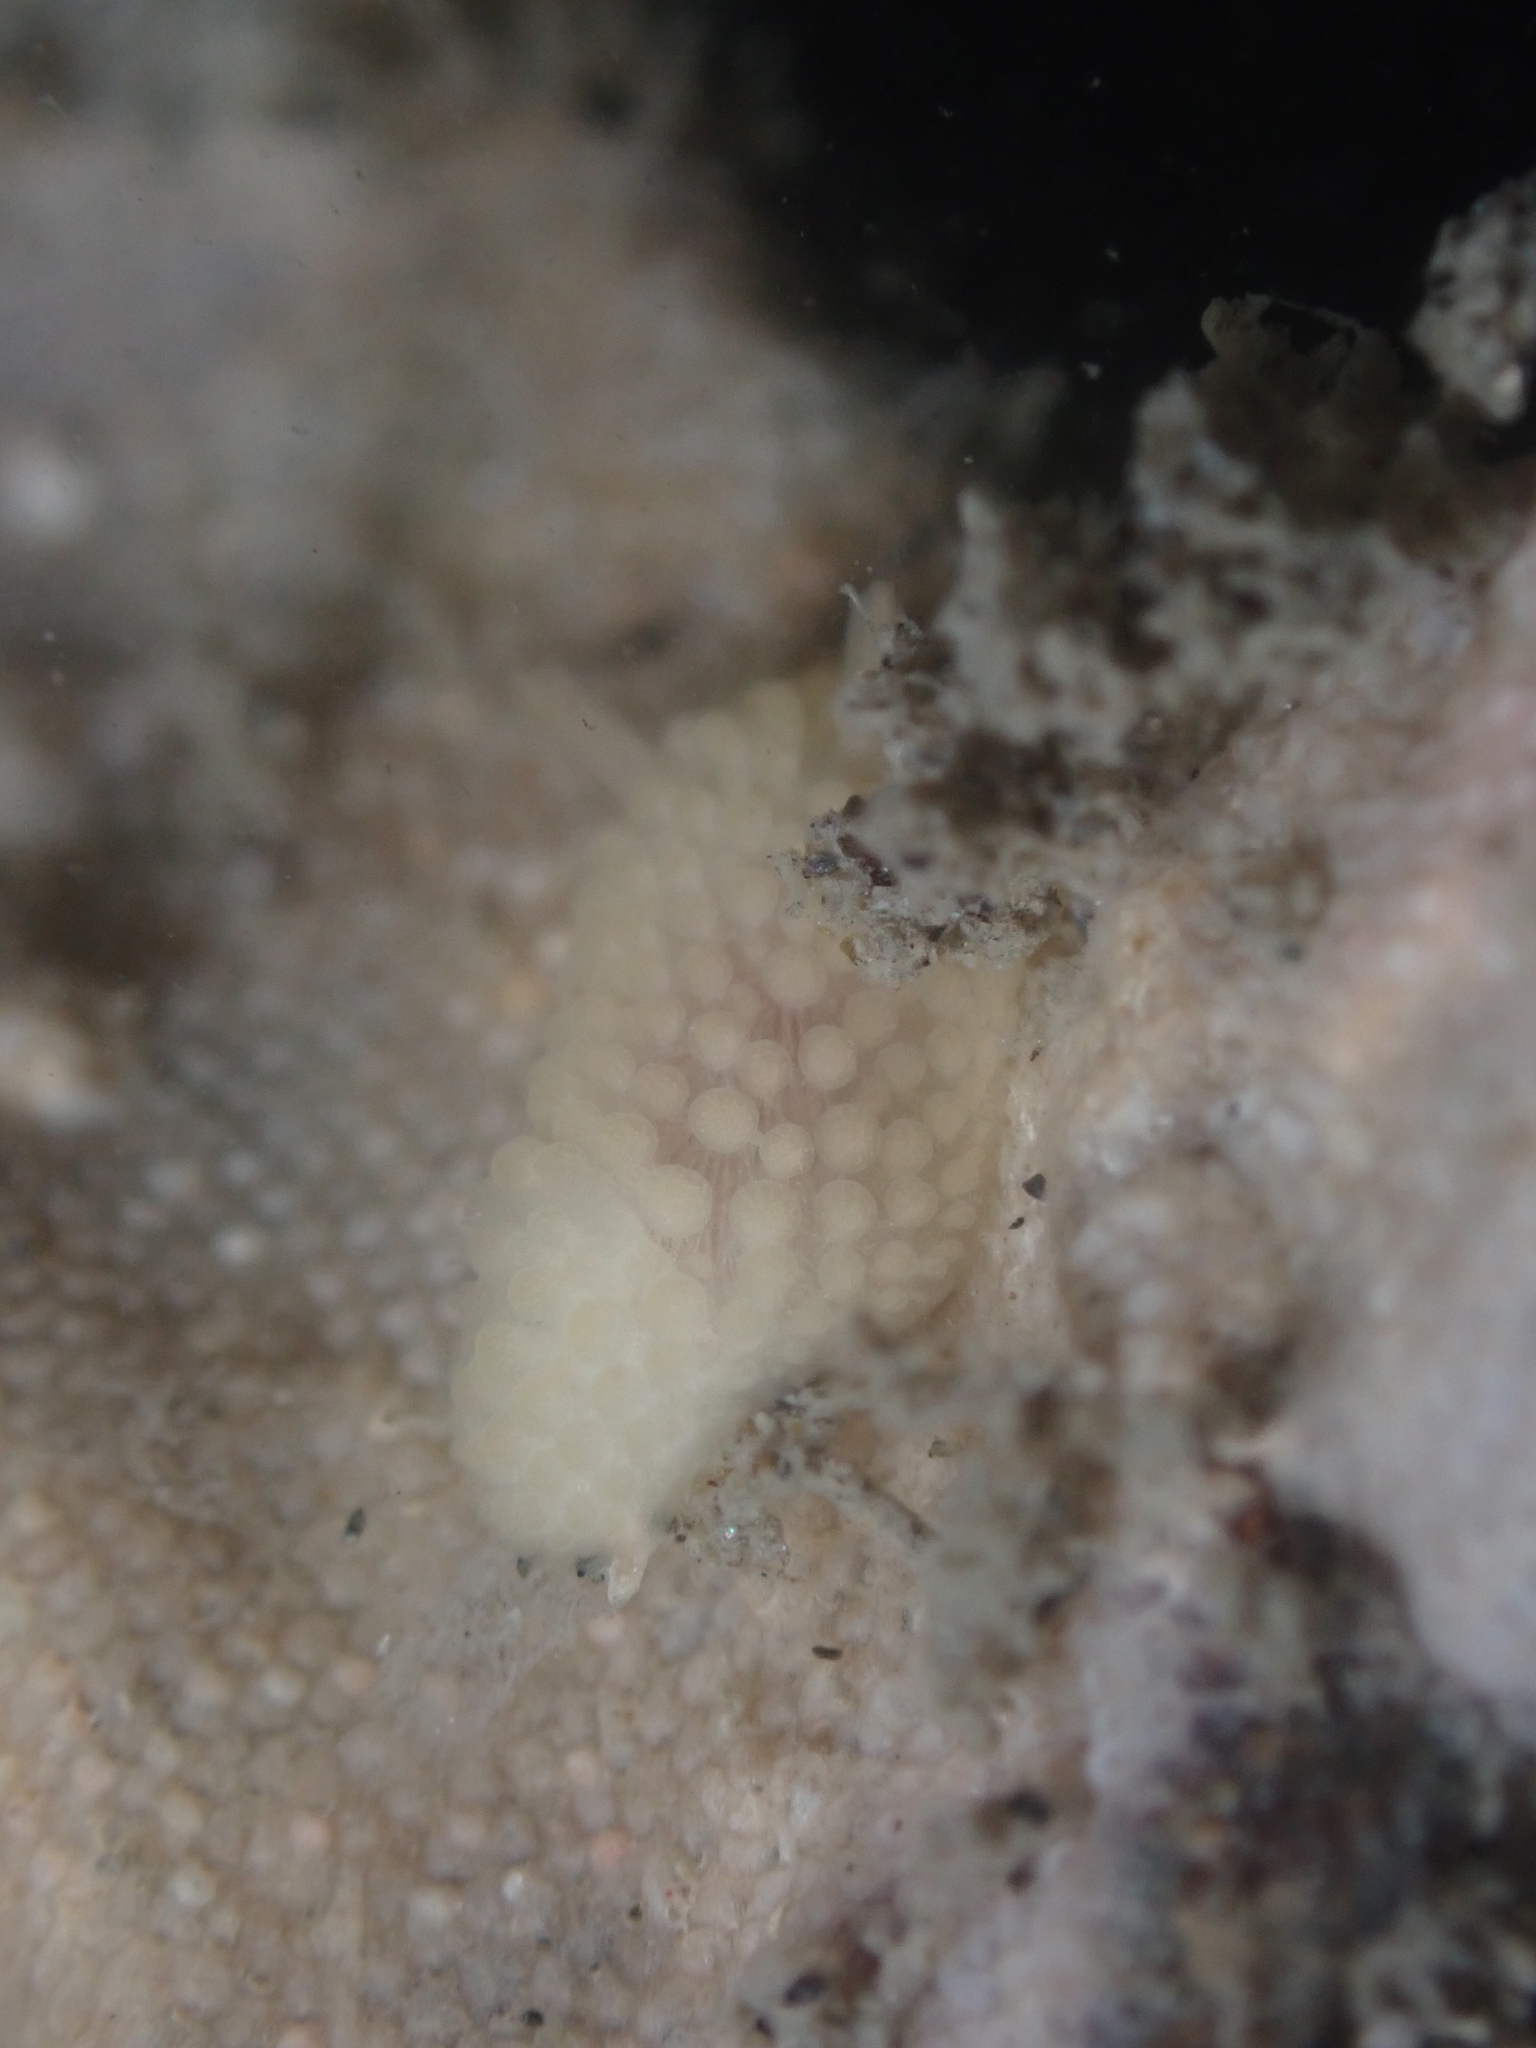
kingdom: Animalia
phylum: Mollusca
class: Gastropoda
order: Nudibranchia
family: Onchidorididae
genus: Onchidoris
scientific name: Onchidoris muricata
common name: Rough doris
